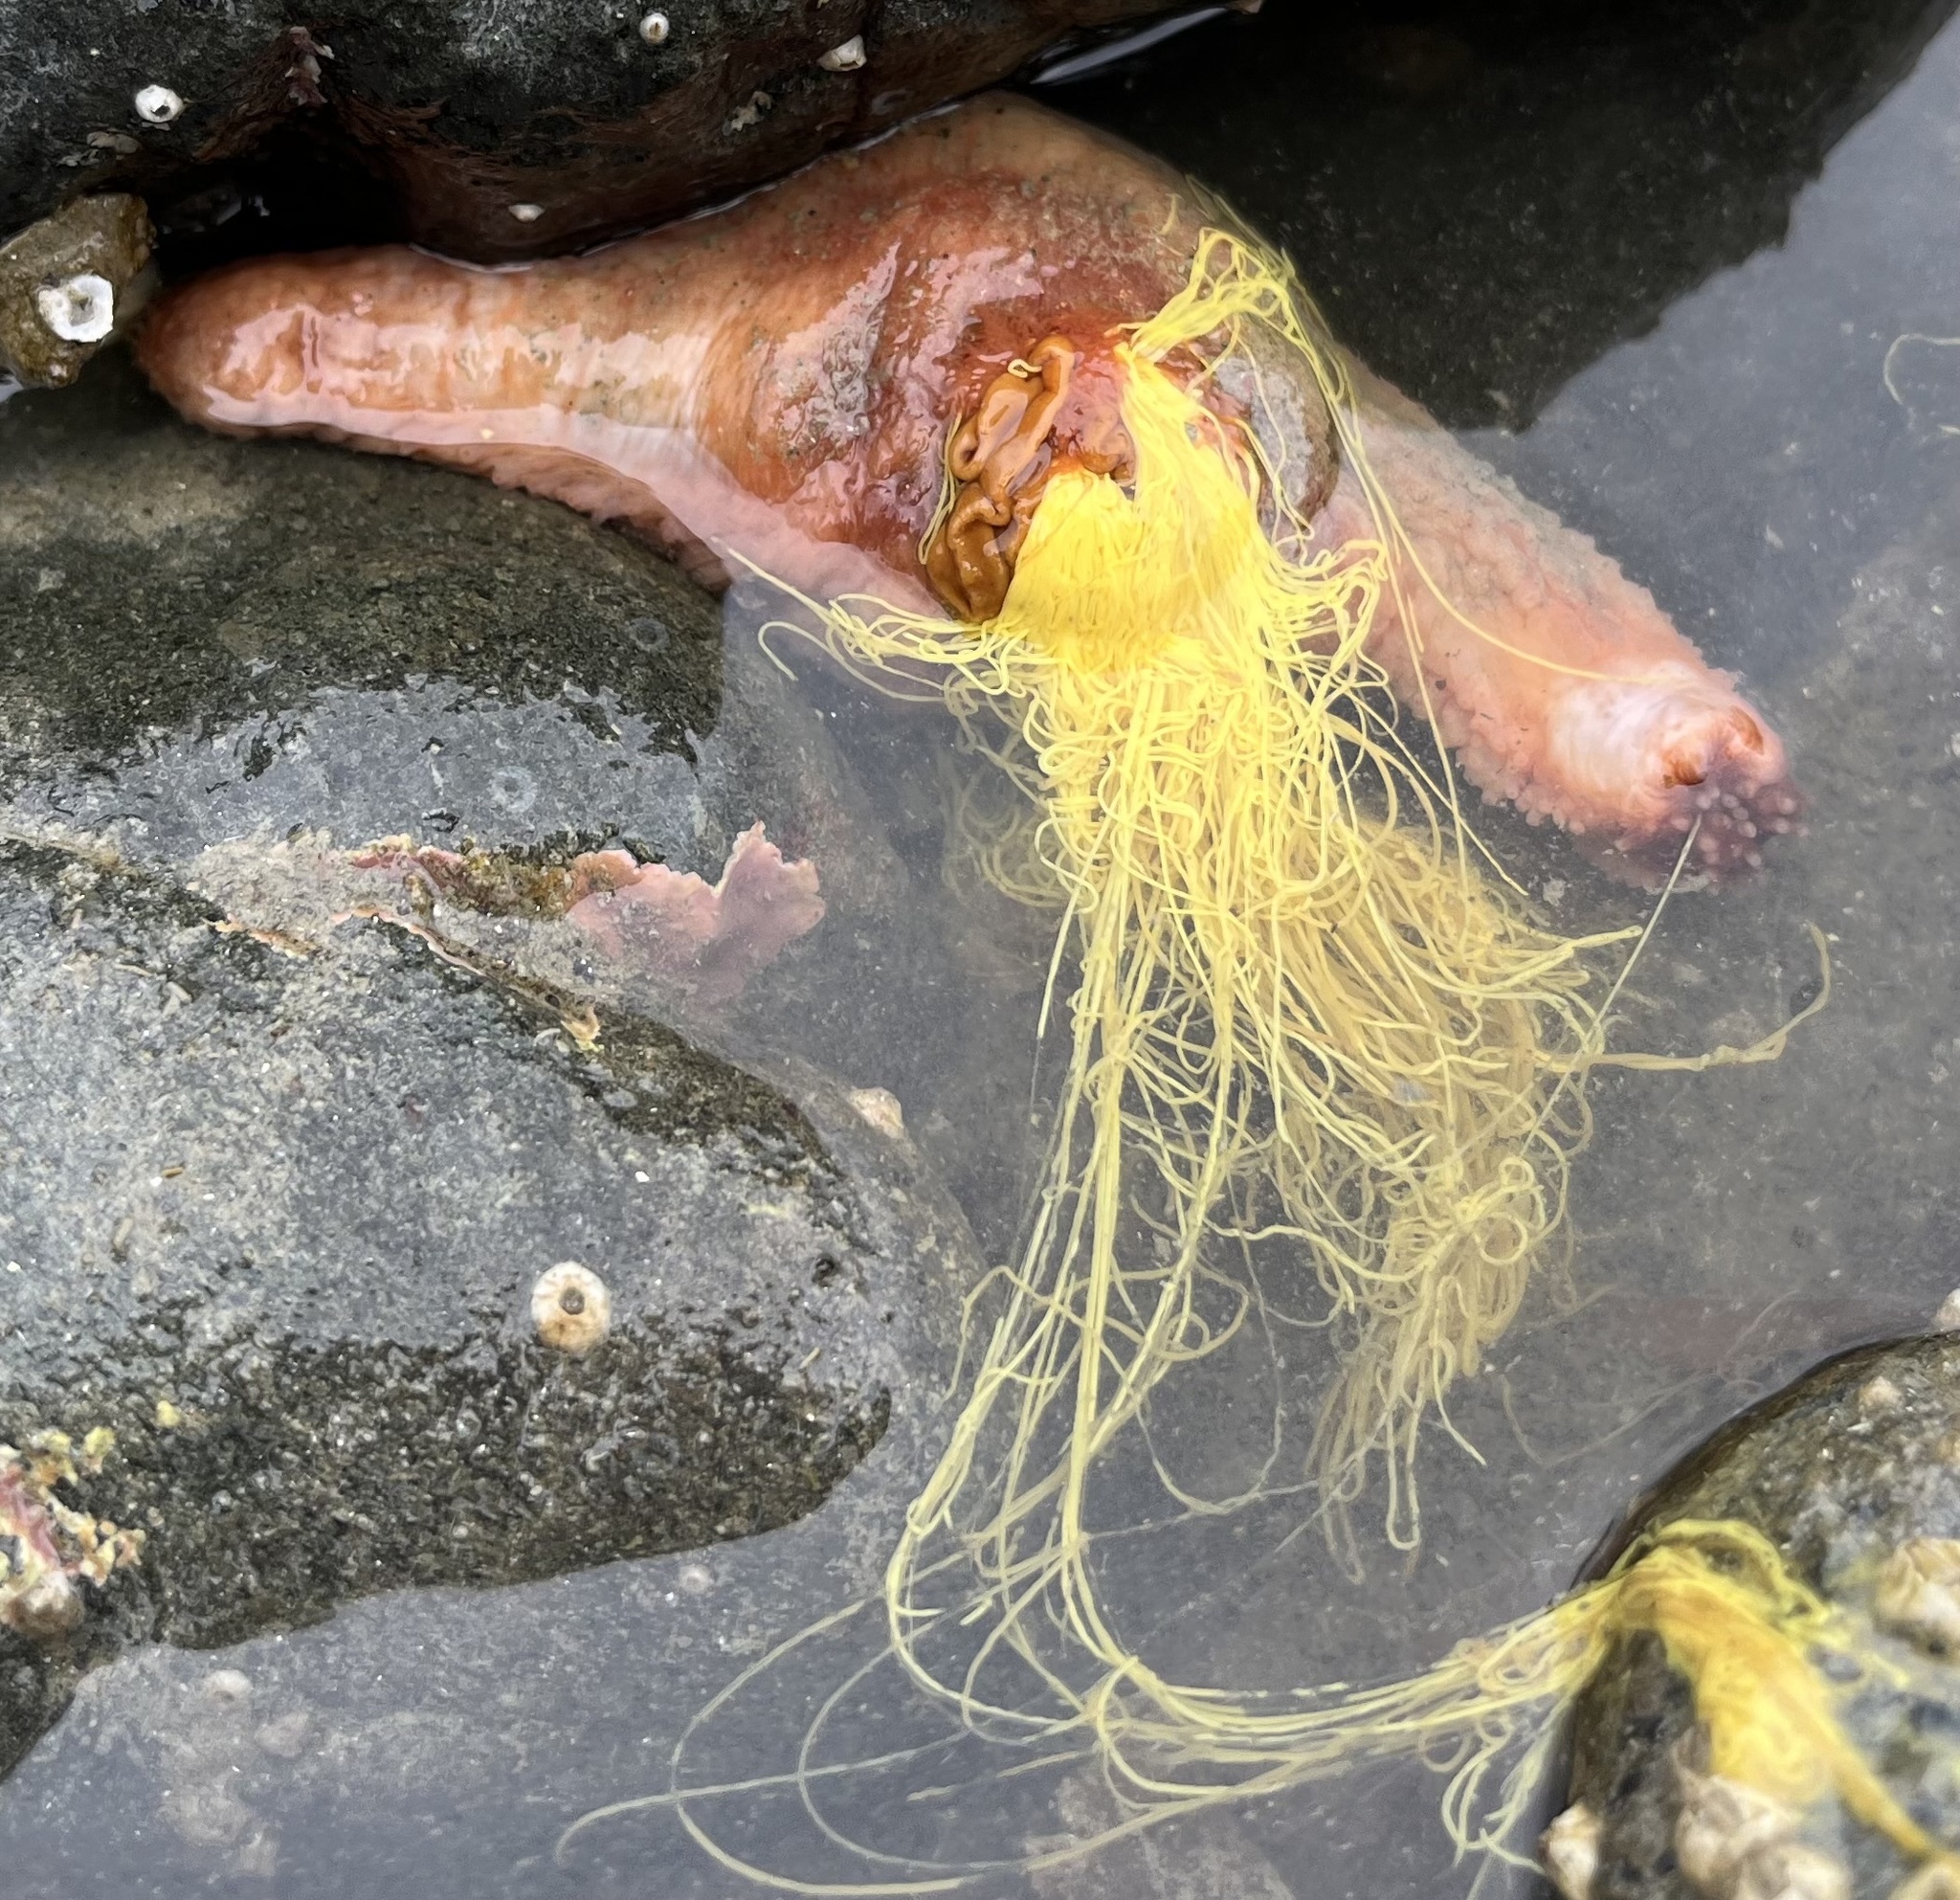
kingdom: Animalia
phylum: Echinodermata
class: Holothuroidea
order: Dendrochirotida
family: Cucumariidae
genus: Cucumaria
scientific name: Cucumaria miniata
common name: Orange sea cucumber
